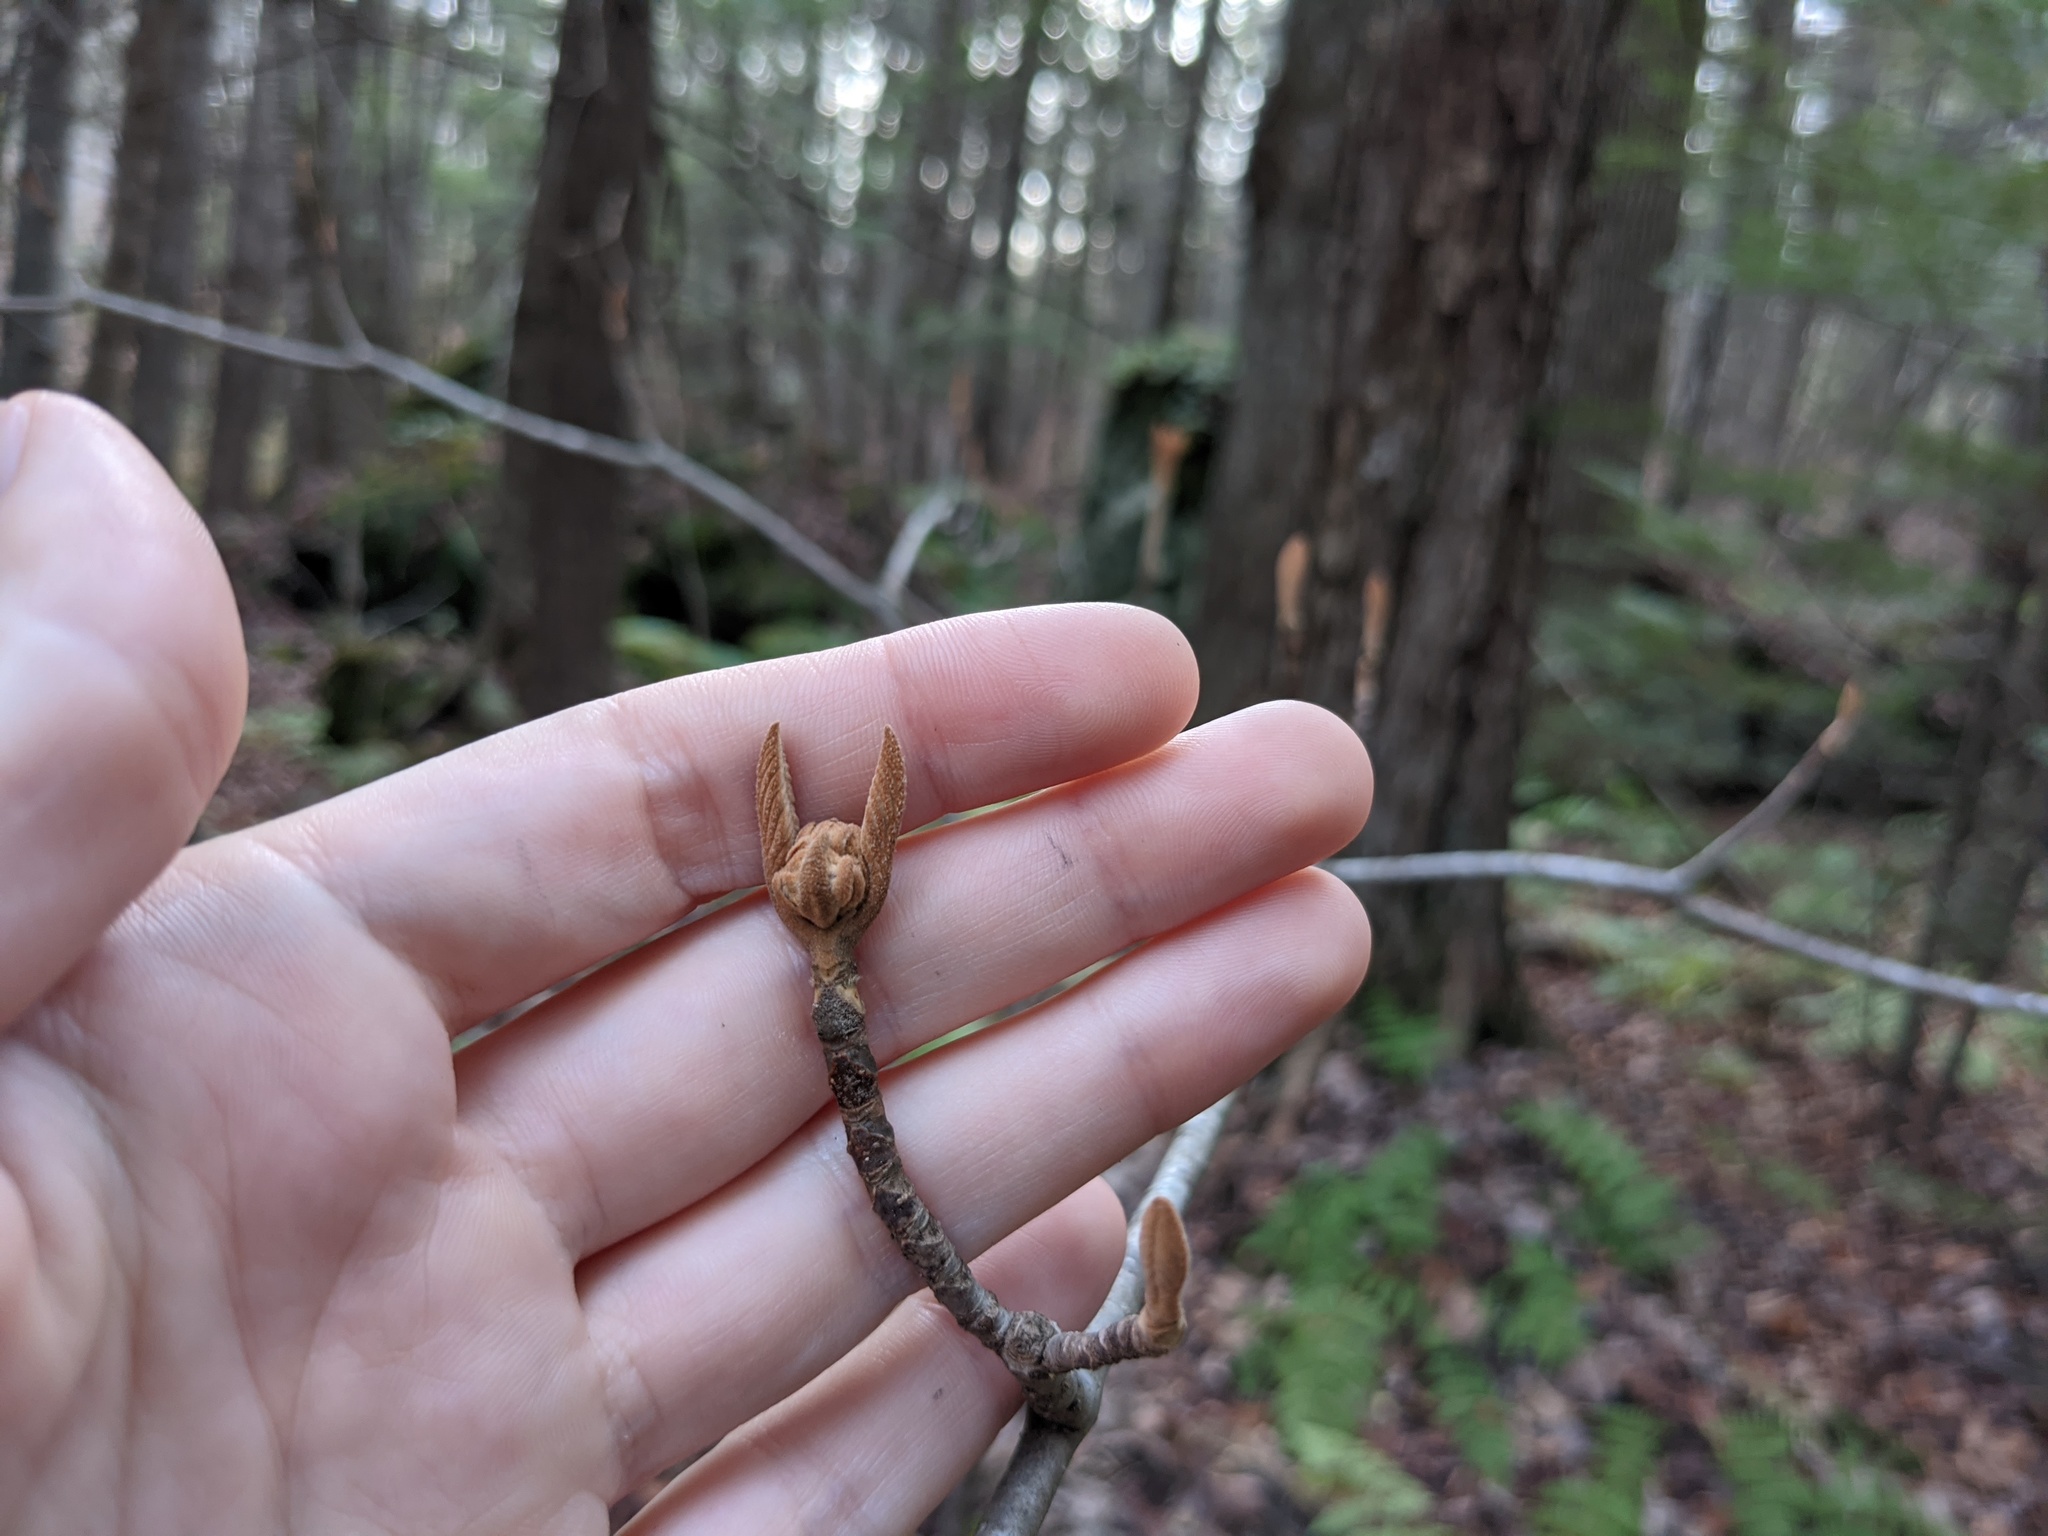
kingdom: Plantae
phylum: Tracheophyta
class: Magnoliopsida
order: Dipsacales
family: Viburnaceae
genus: Viburnum
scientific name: Viburnum lantanoides
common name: Hobblebush
